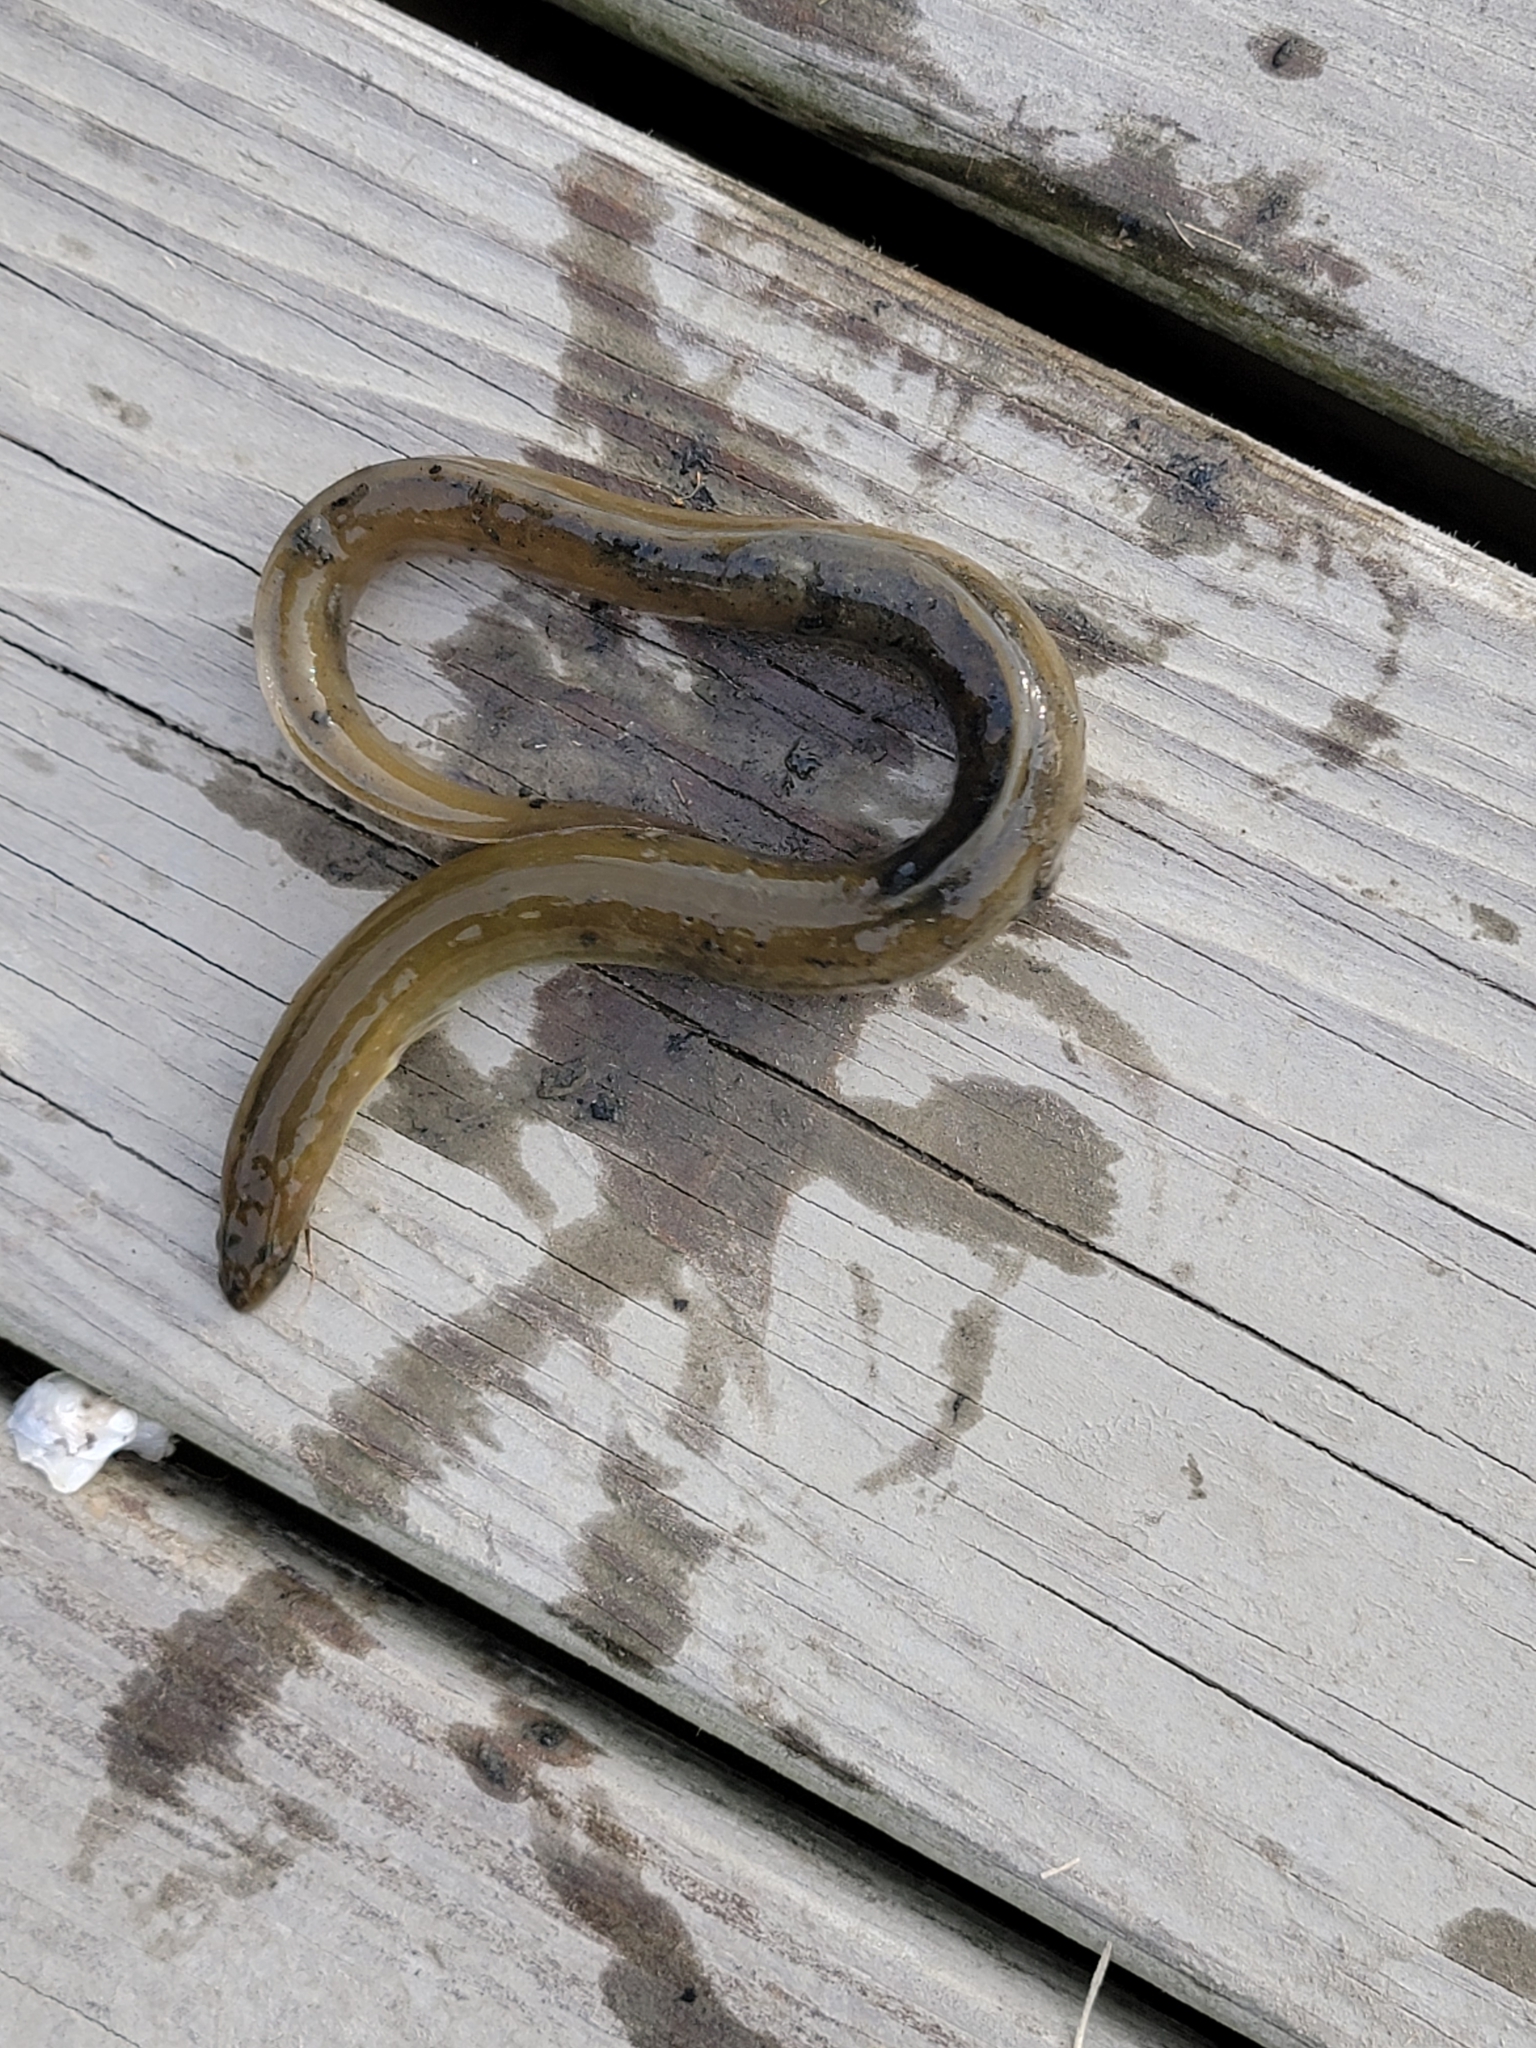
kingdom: Animalia
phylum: Chordata
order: Anguilliformes
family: Anguillidae
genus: Anguilla
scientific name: Anguilla rostrata
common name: American eel
